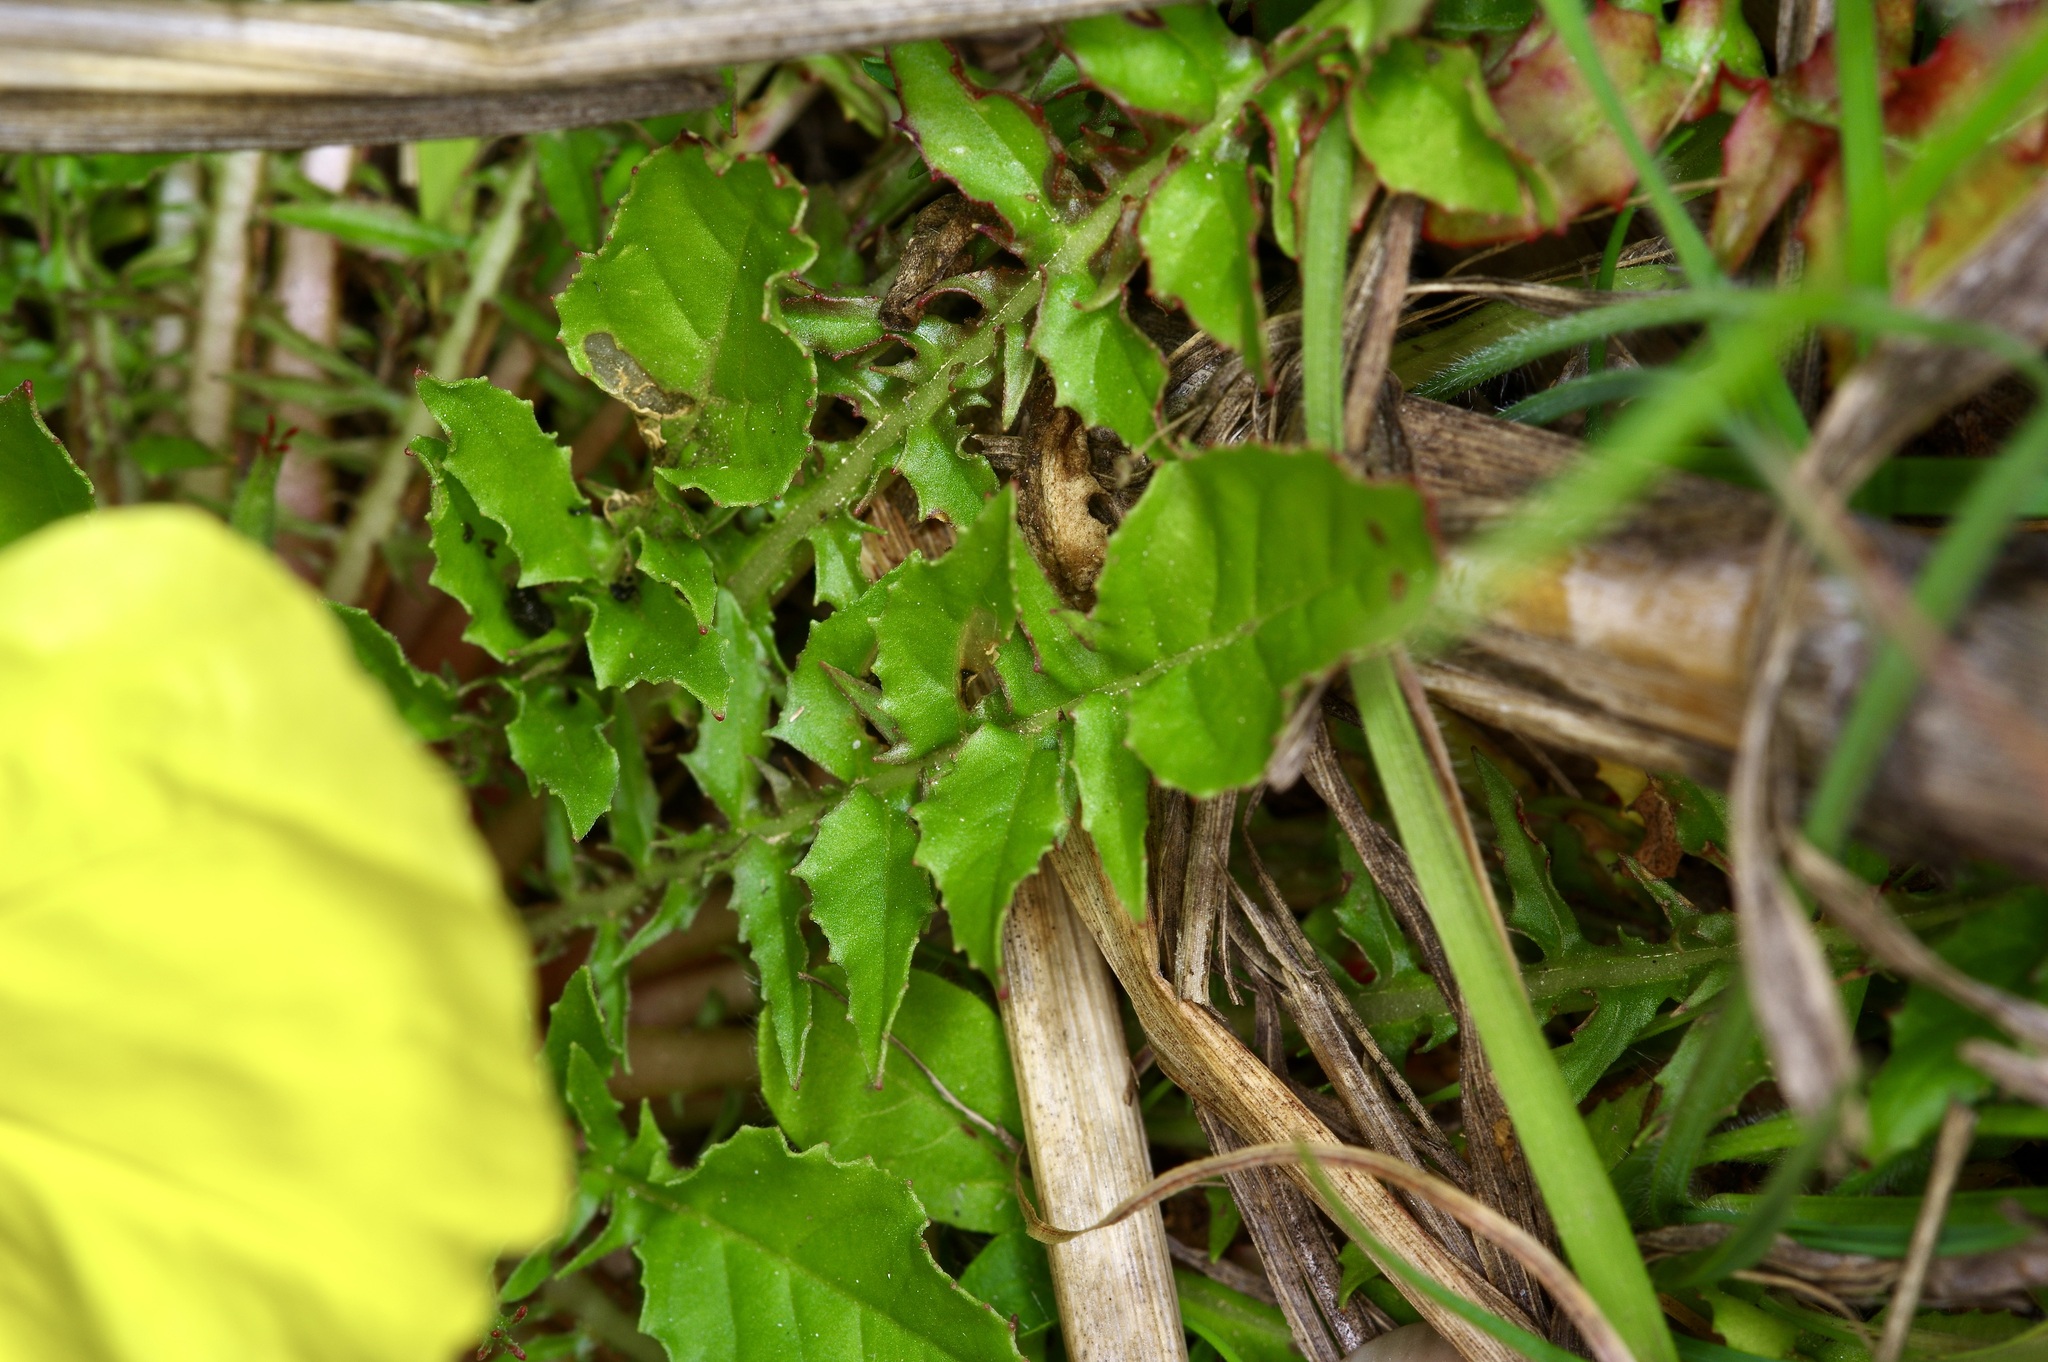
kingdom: Plantae
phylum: Tracheophyta
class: Magnoliopsida
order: Myrtales
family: Onagraceae
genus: Oenothera
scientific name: Oenothera triloba
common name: Sessile evening-primrose
